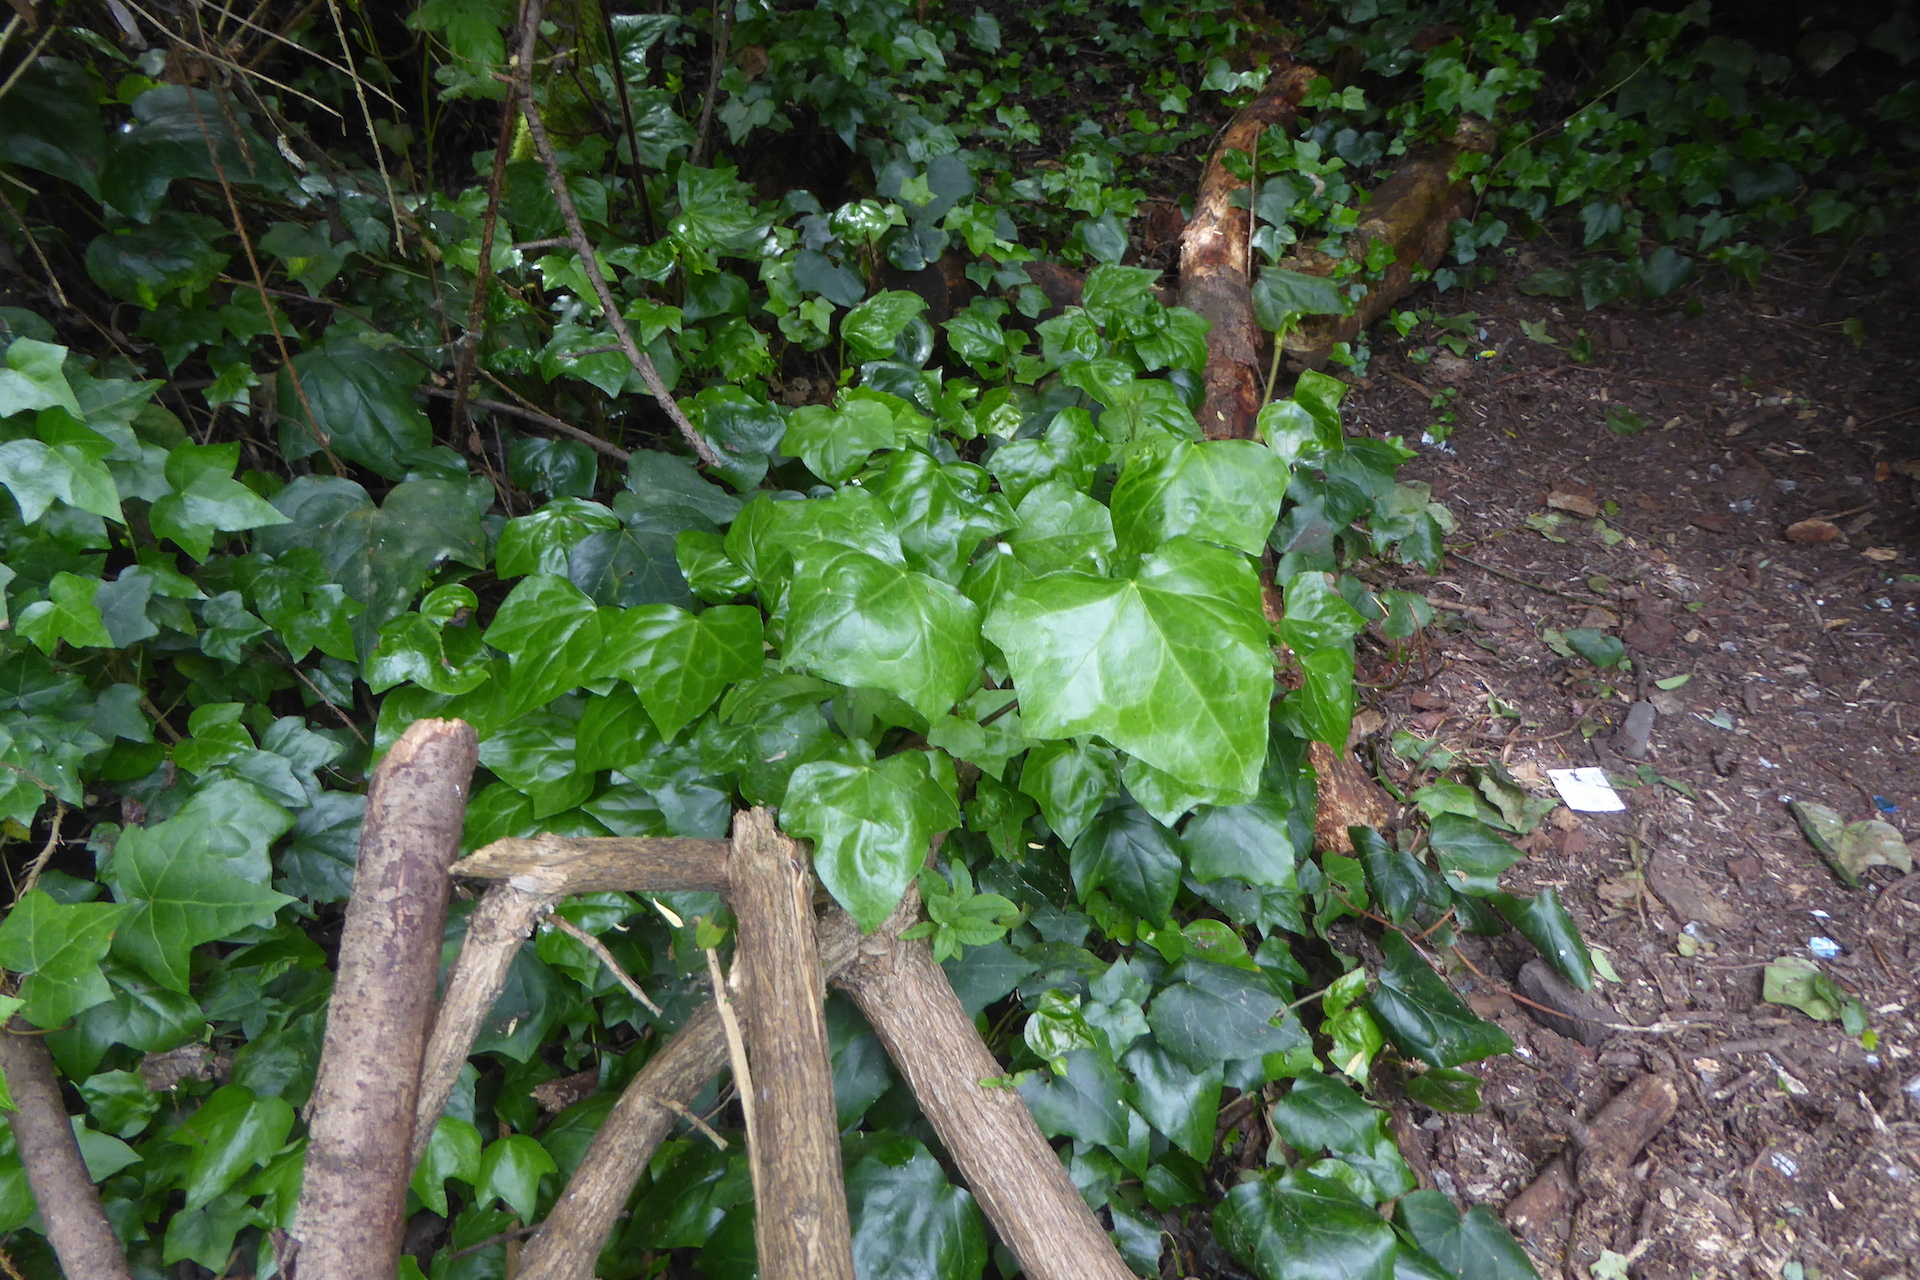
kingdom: Plantae
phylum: Tracheophyta
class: Magnoliopsida
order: Apiales
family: Araliaceae
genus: Hedera
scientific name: Hedera canariensis
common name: Madeira ivy
